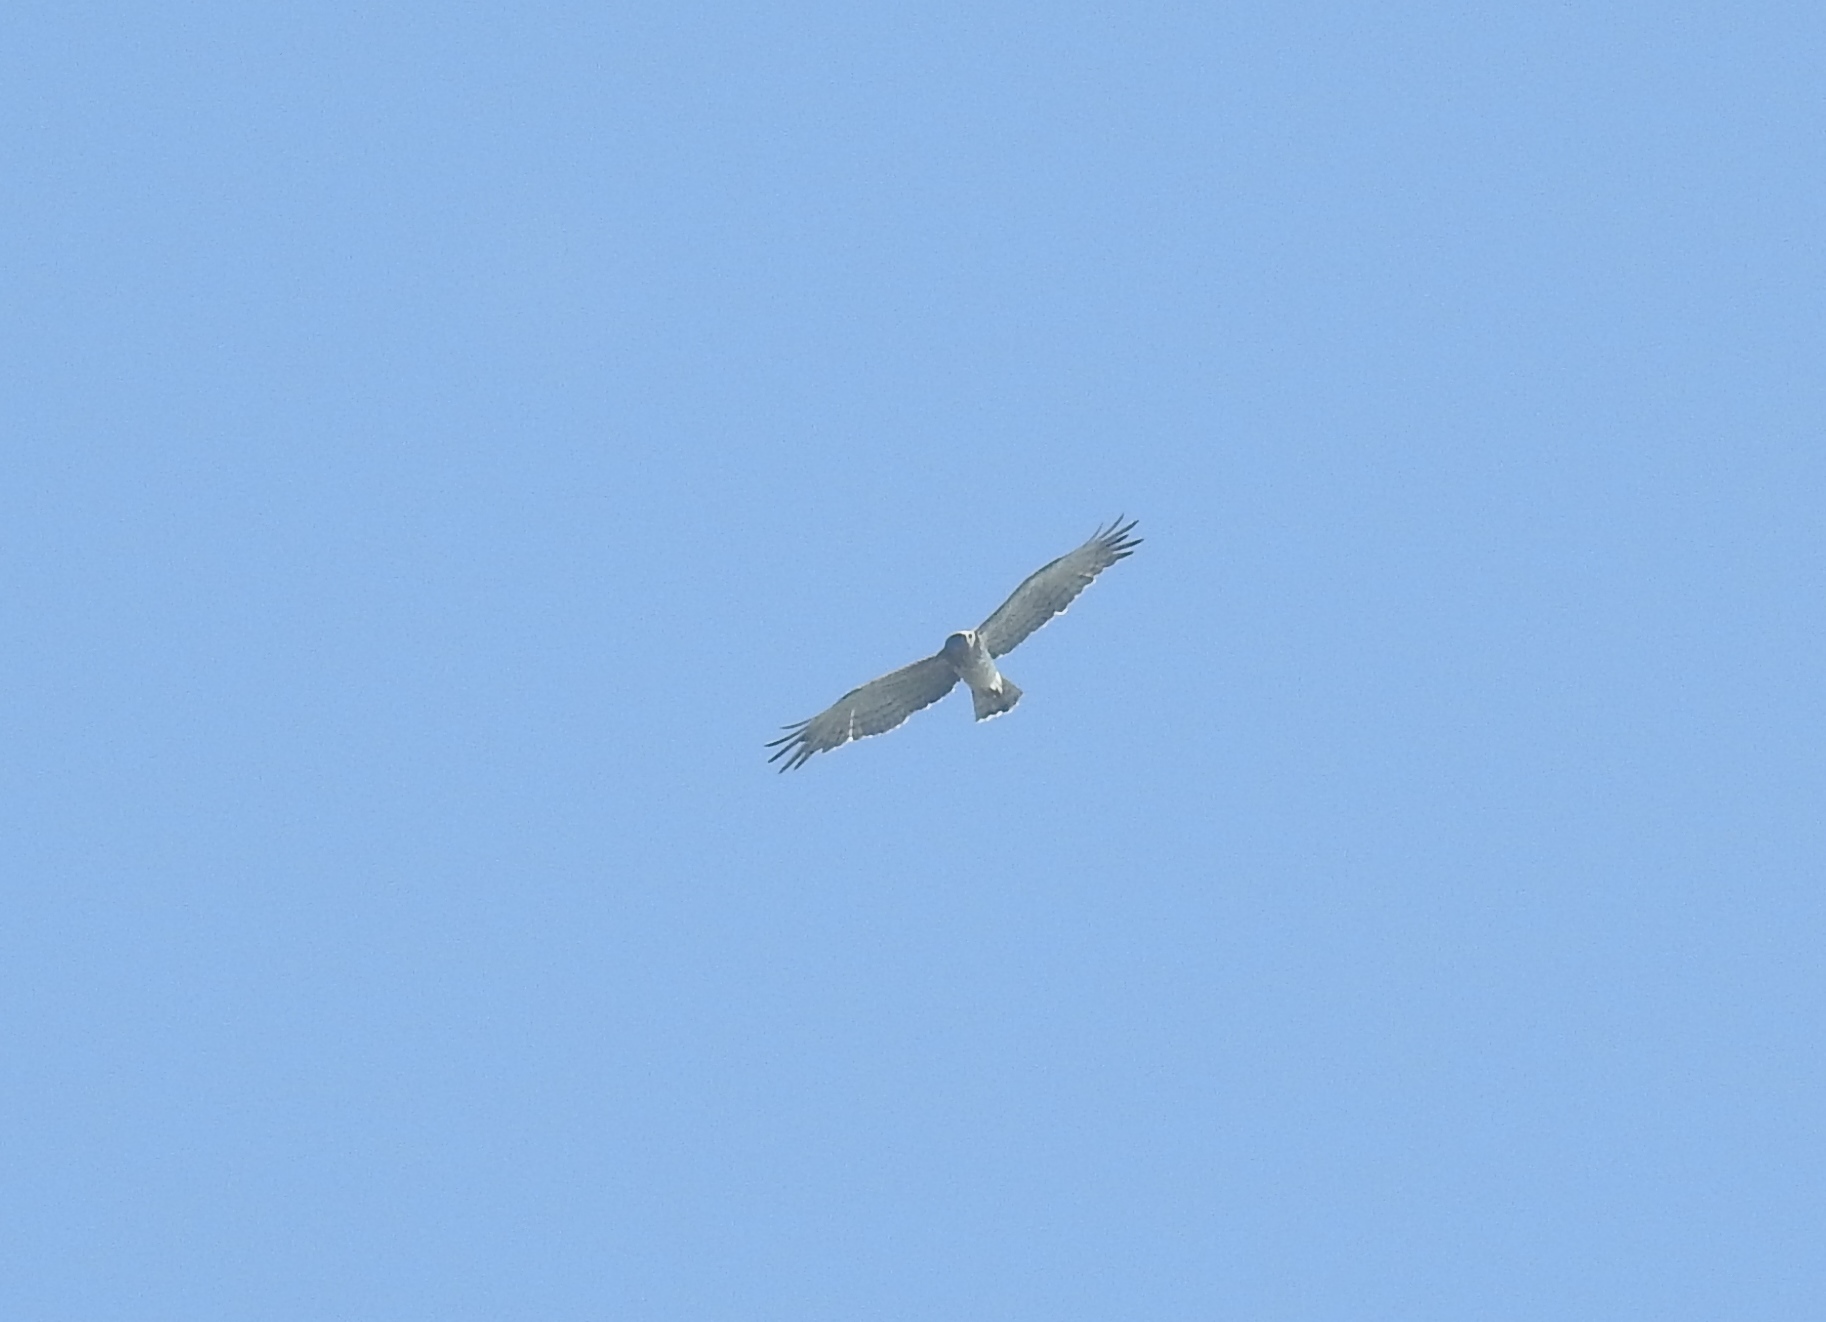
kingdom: Animalia
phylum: Chordata
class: Aves
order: Accipitriformes
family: Accipitridae
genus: Circaetus
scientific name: Circaetus gallicus
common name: Short-toed snake eagle
